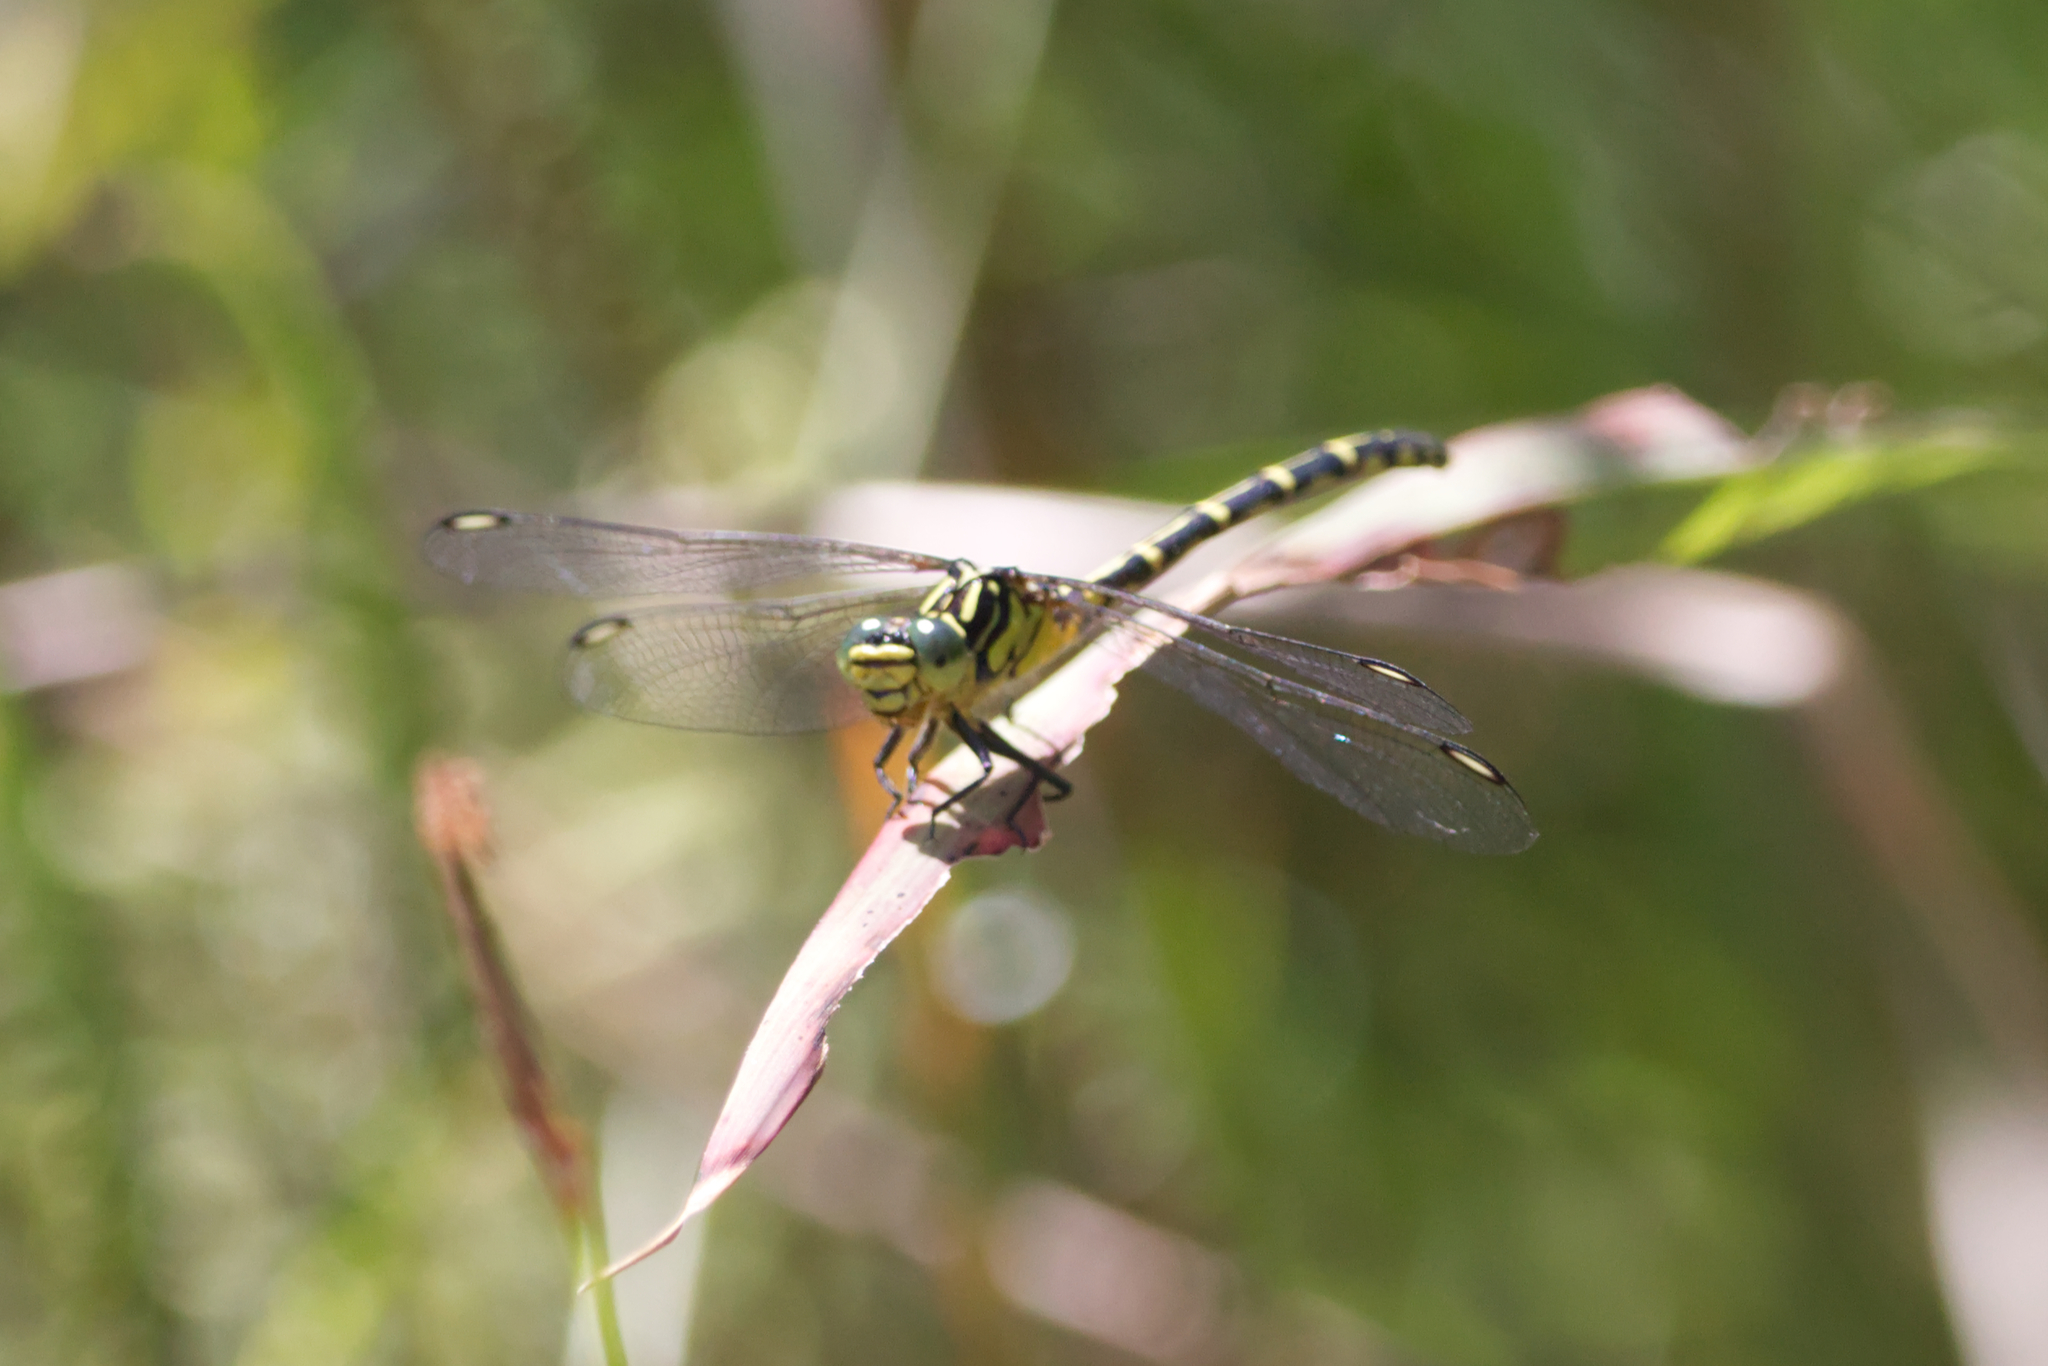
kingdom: Animalia
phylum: Arthropoda
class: Insecta
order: Odonata
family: Gomphidae
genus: Austrogomphus
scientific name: Austrogomphus ochraceus
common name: Jade hunter
